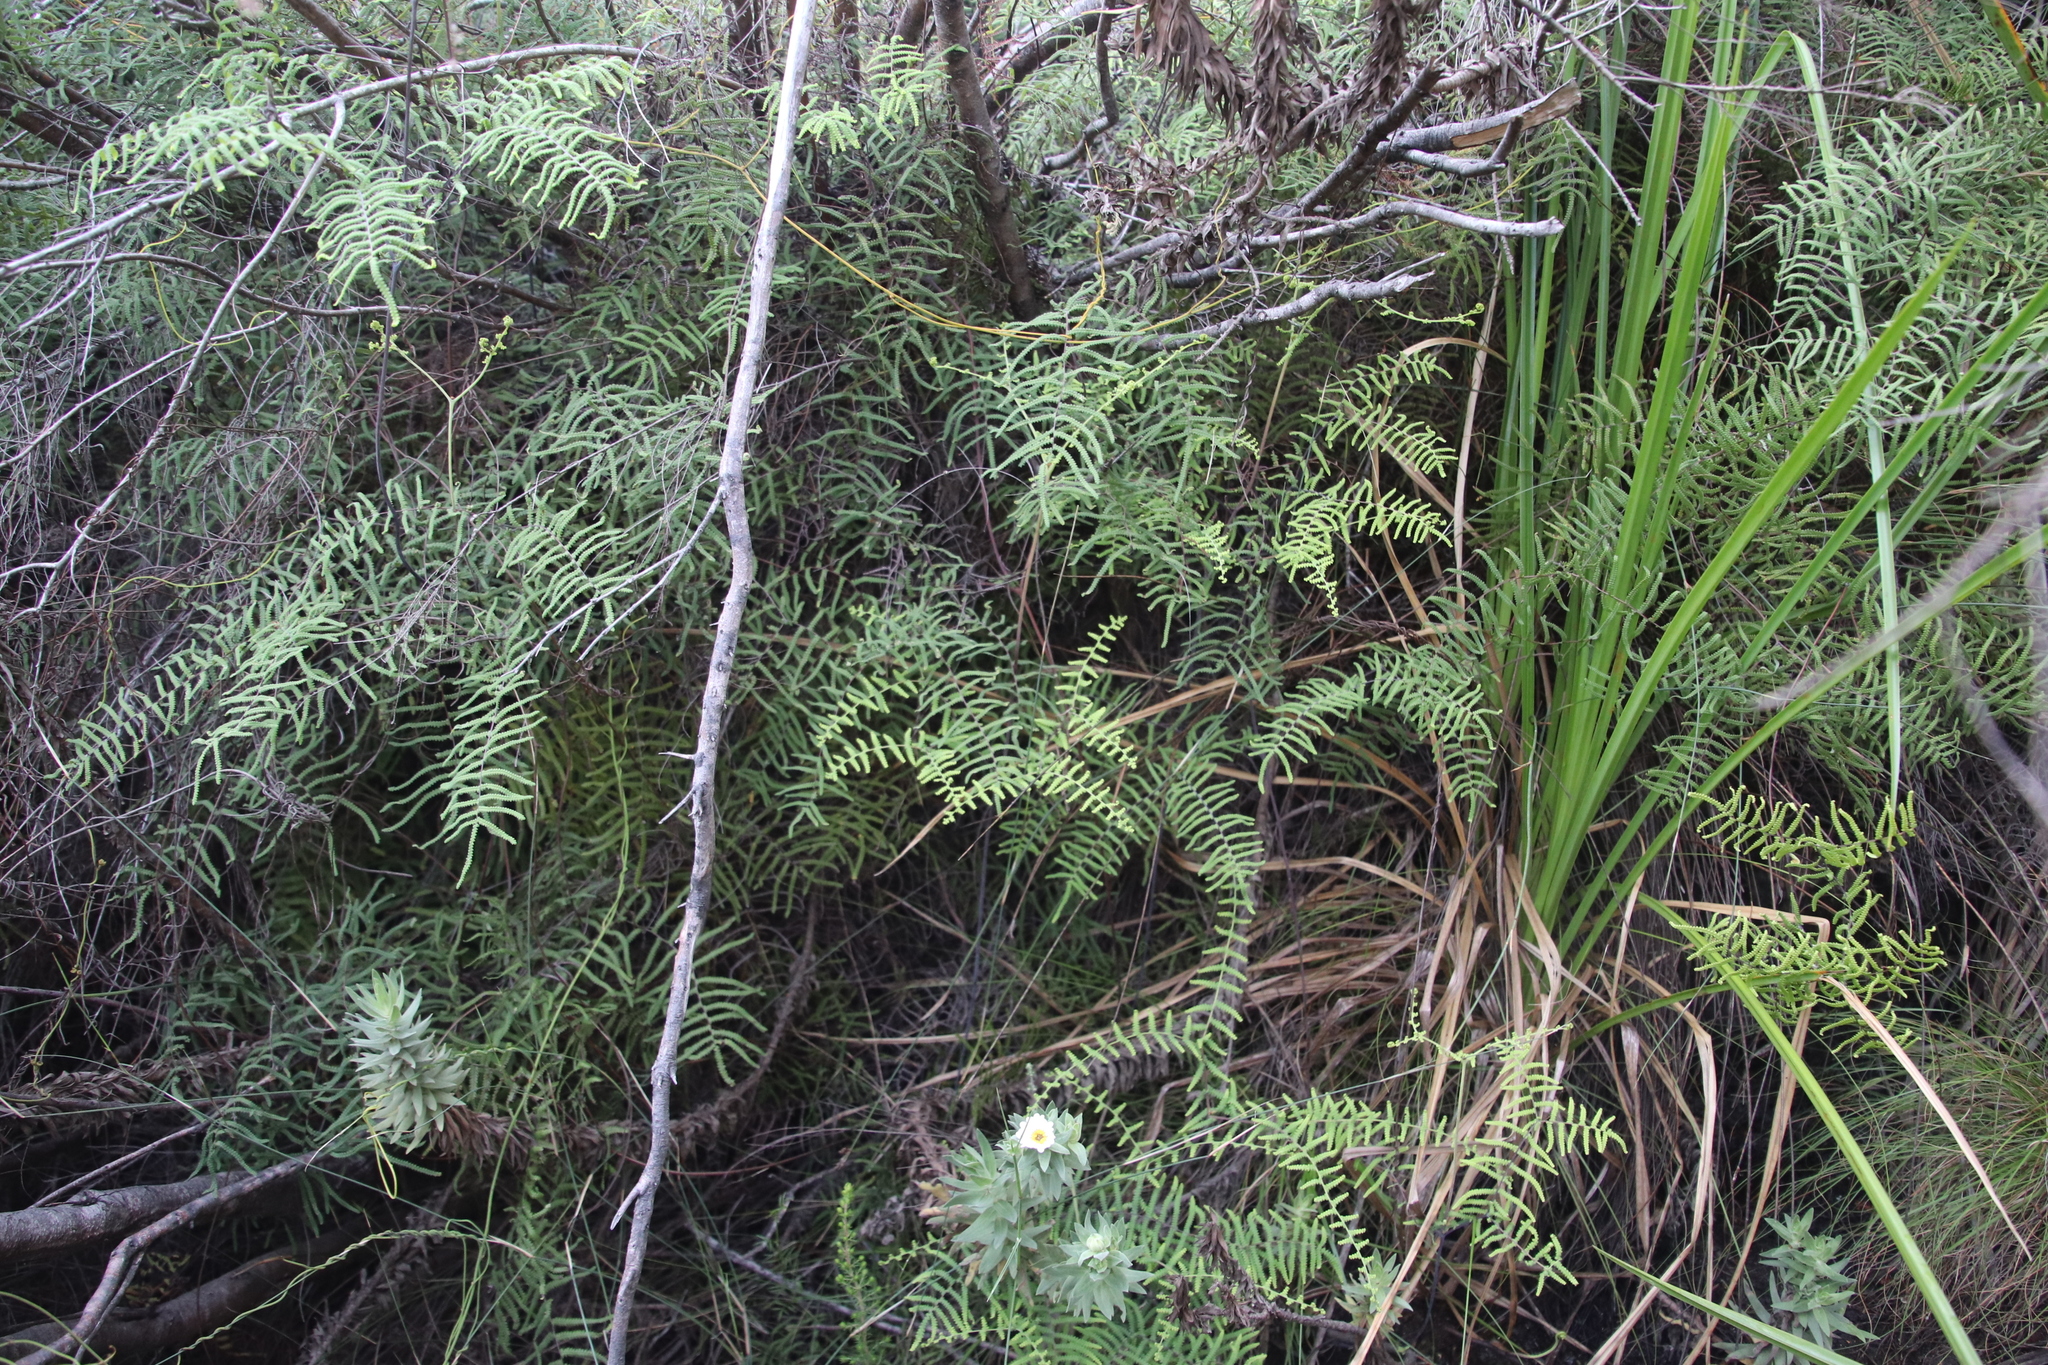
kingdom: Plantae
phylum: Tracheophyta
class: Polypodiopsida
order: Gleicheniales
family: Gleicheniaceae
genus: Gleichenia
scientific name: Gleichenia polypodioides
